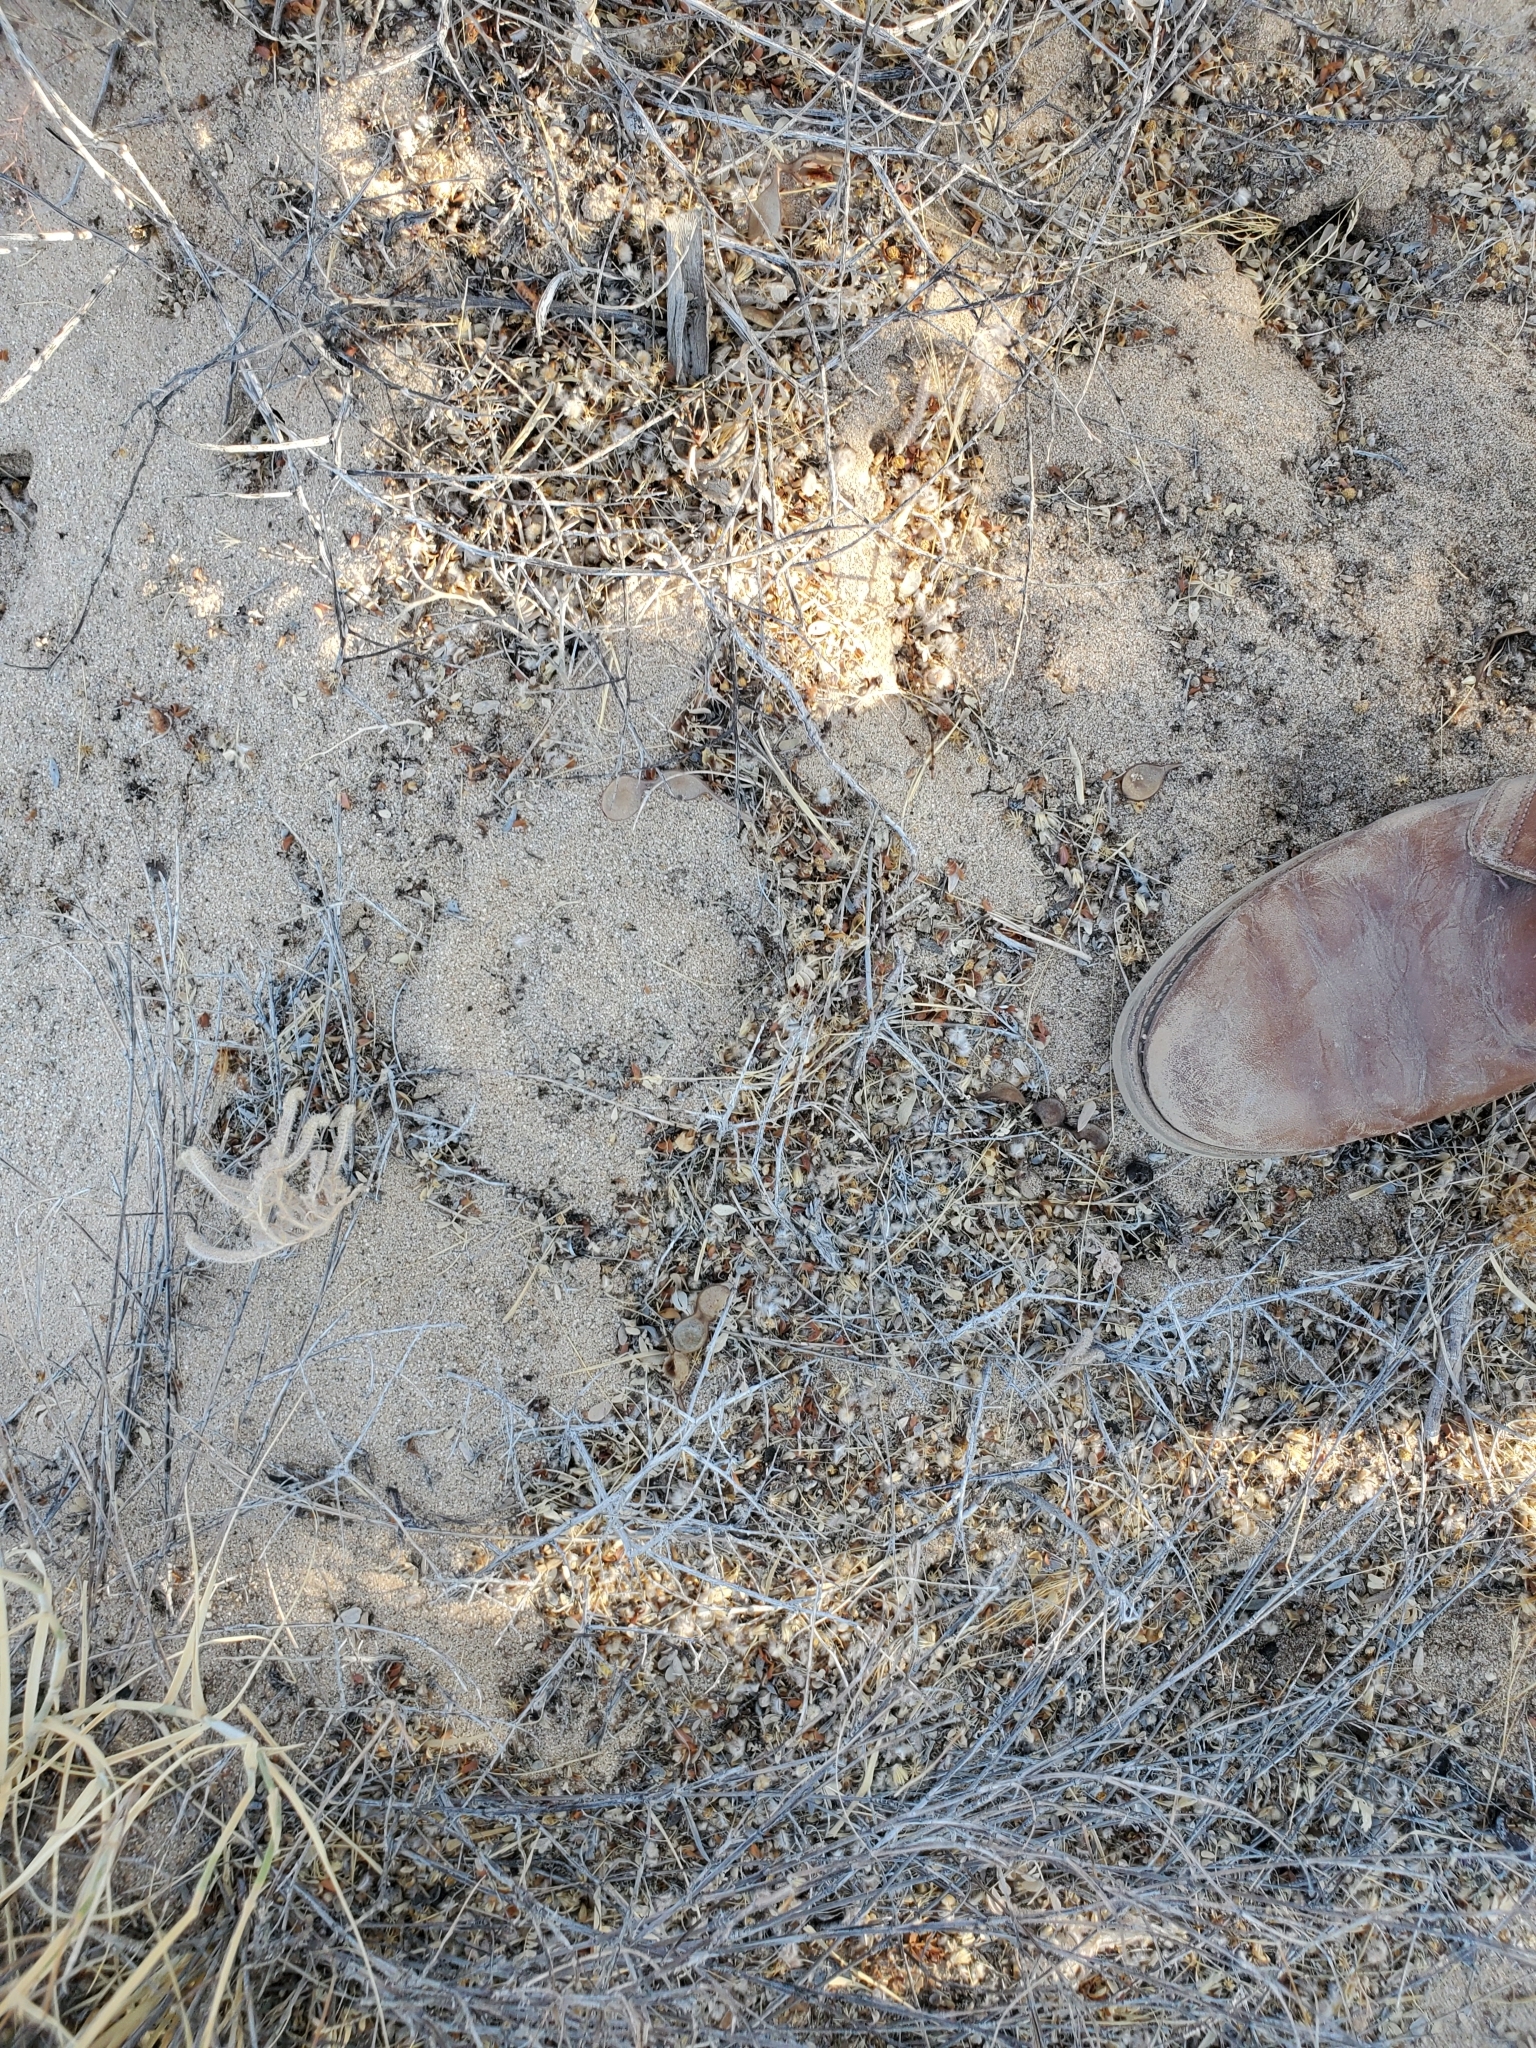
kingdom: Animalia
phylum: Chordata
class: Squamata
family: Viperidae
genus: Crotalus
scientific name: Crotalus cerastes
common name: Sidewinder
